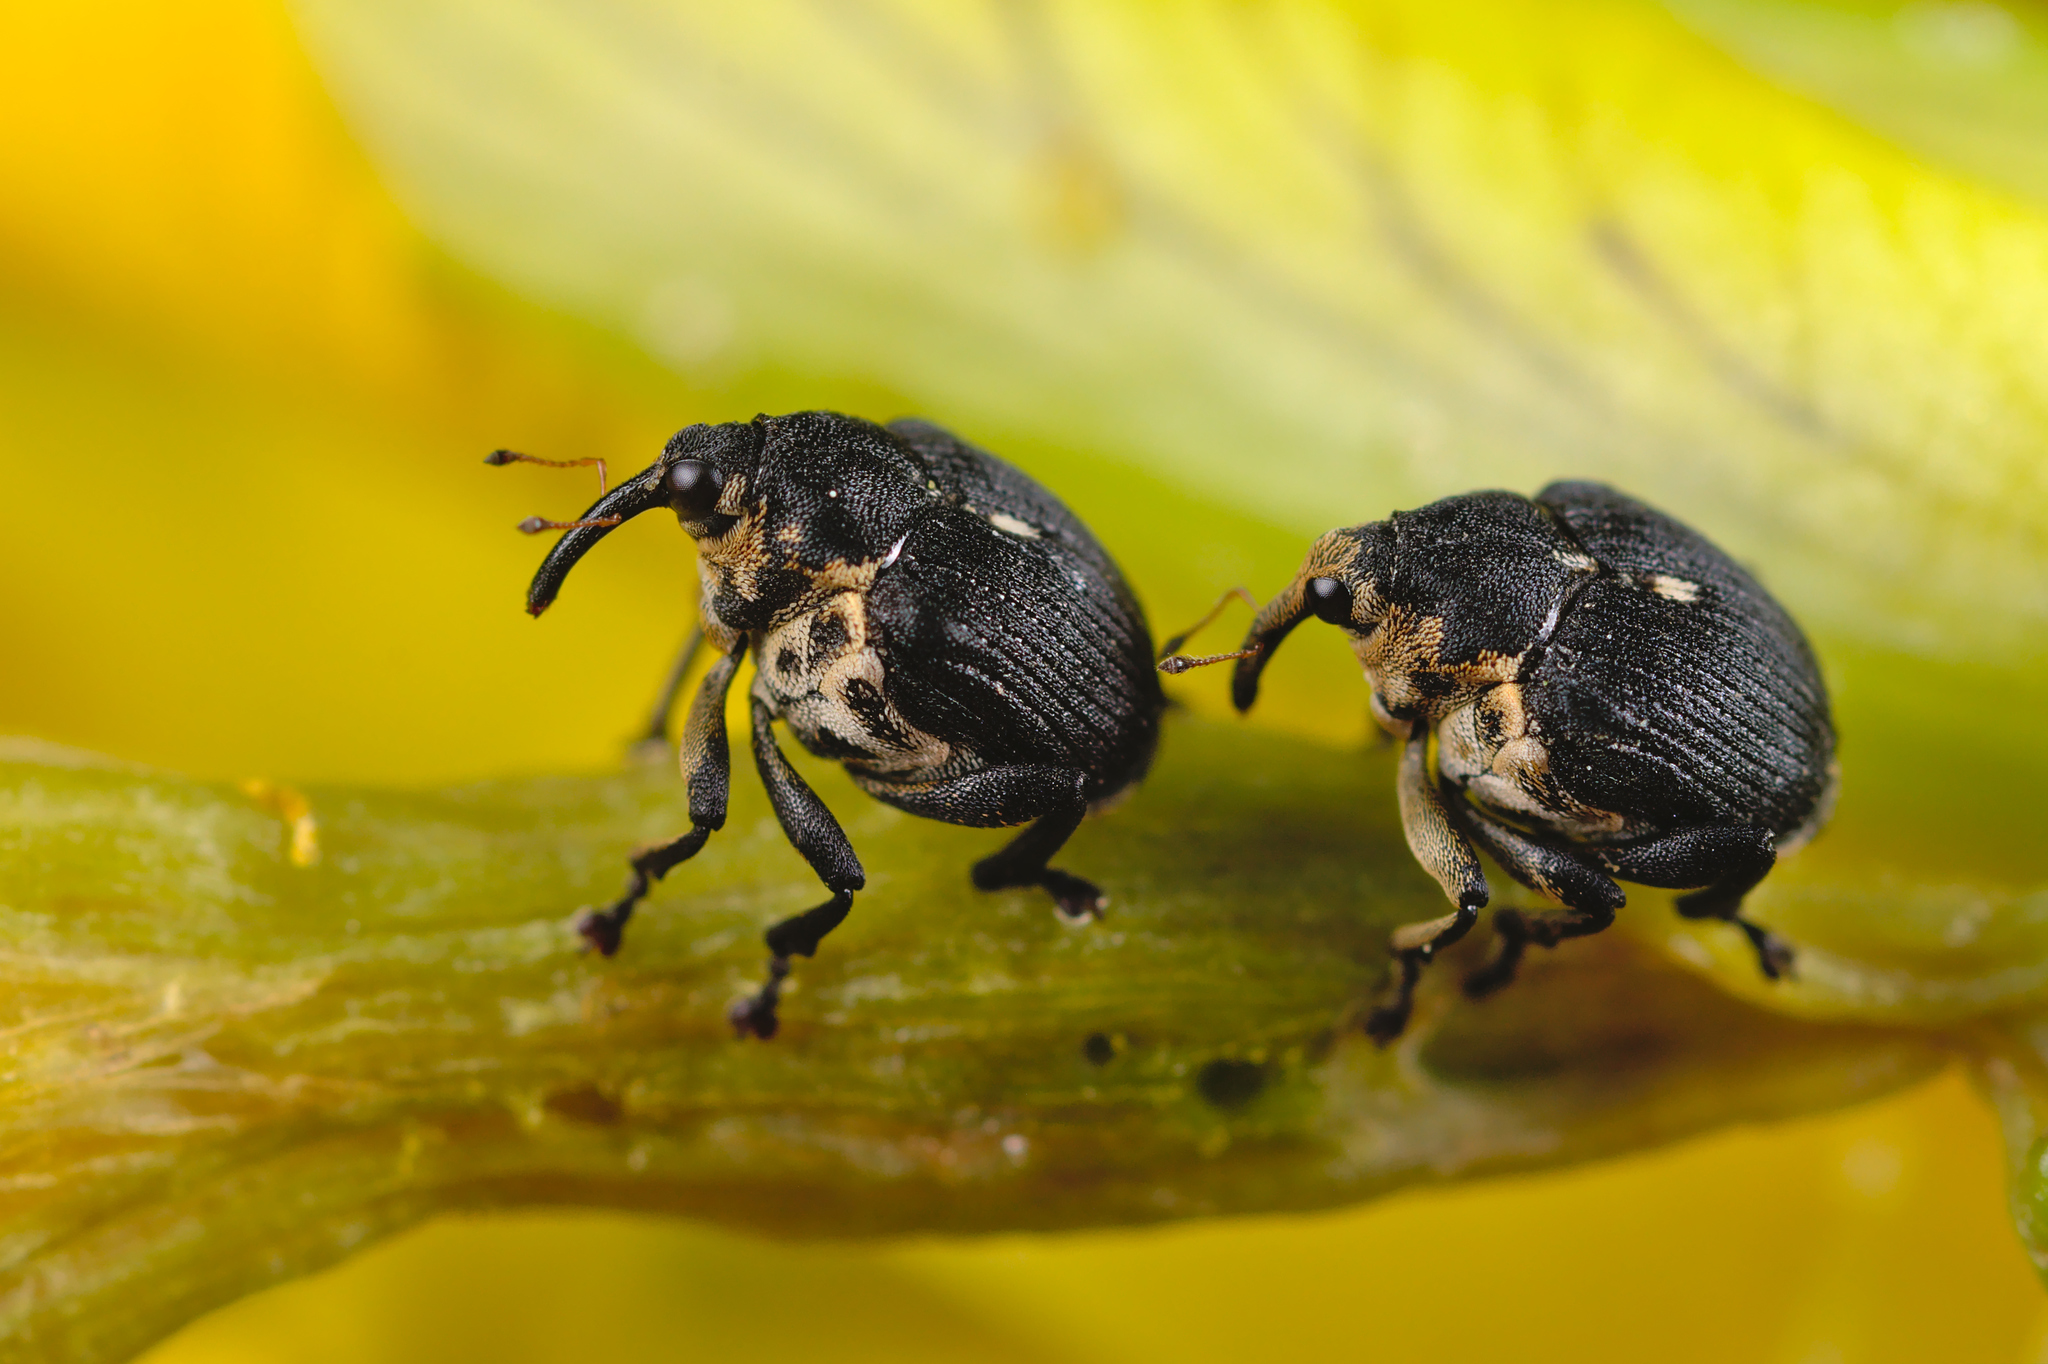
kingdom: Animalia
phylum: Arthropoda
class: Insecta
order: Coleoptera
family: Curculionidae
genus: Mononychus
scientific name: Mononychus punctumalbum
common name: Iris weevil
